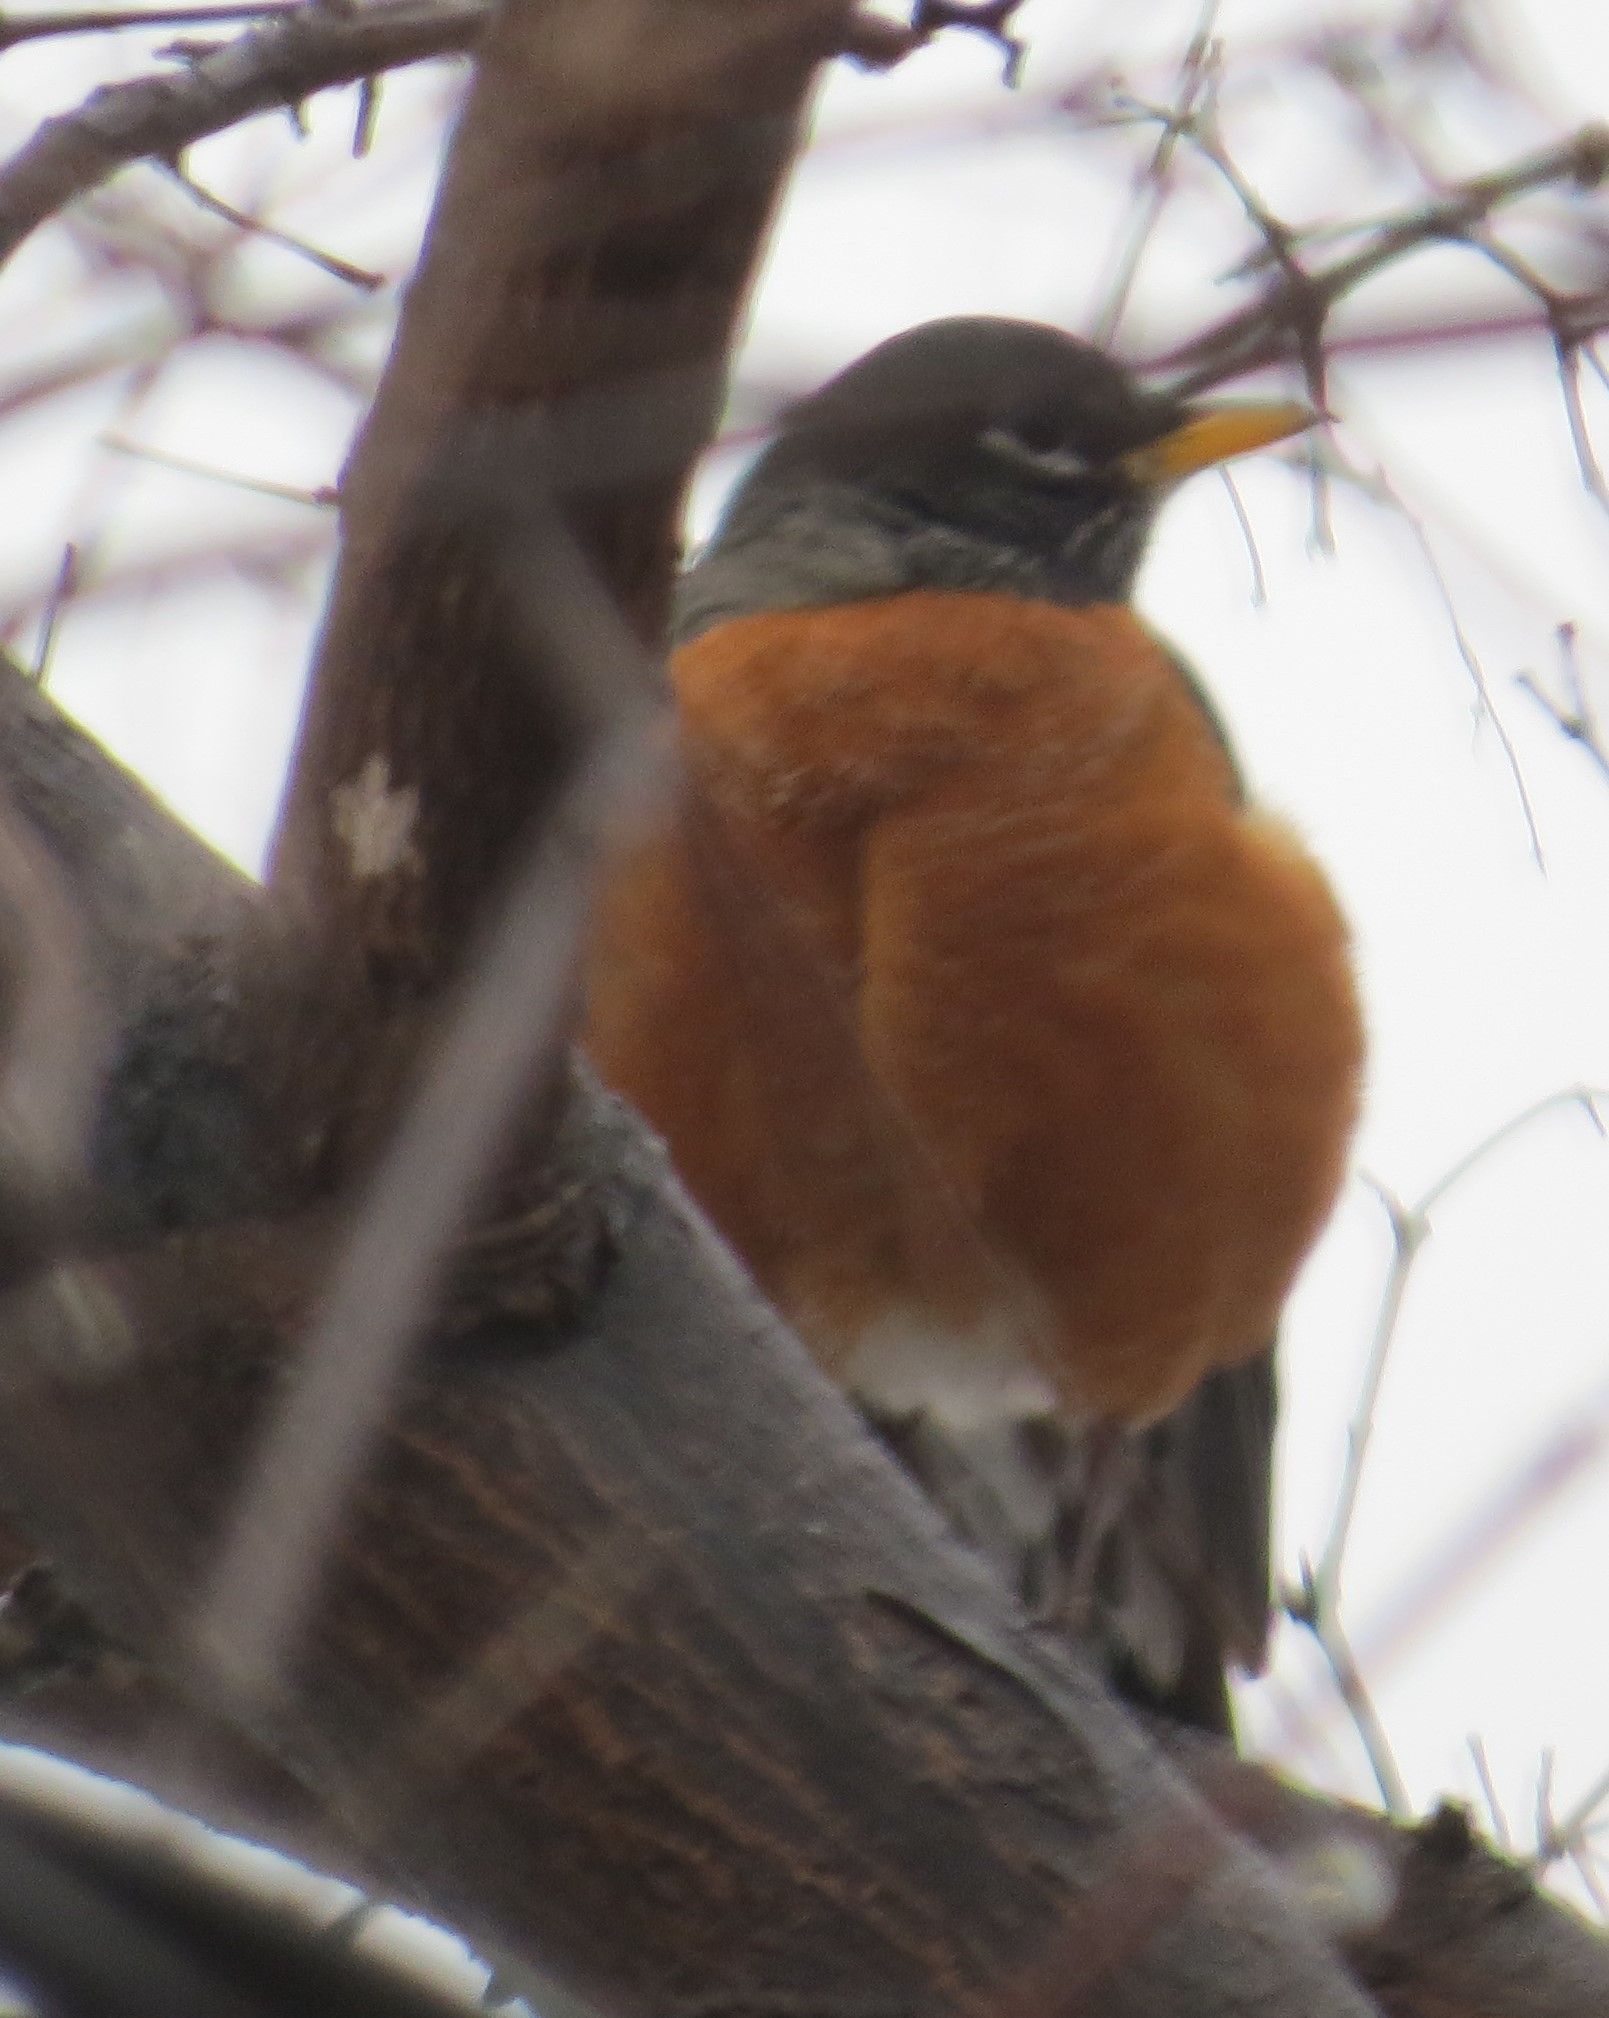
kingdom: Animalia
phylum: Chordata
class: Aves
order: Passeriformes
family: Turdidae
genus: Turdus
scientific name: Turdus migratorius
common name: American robin
